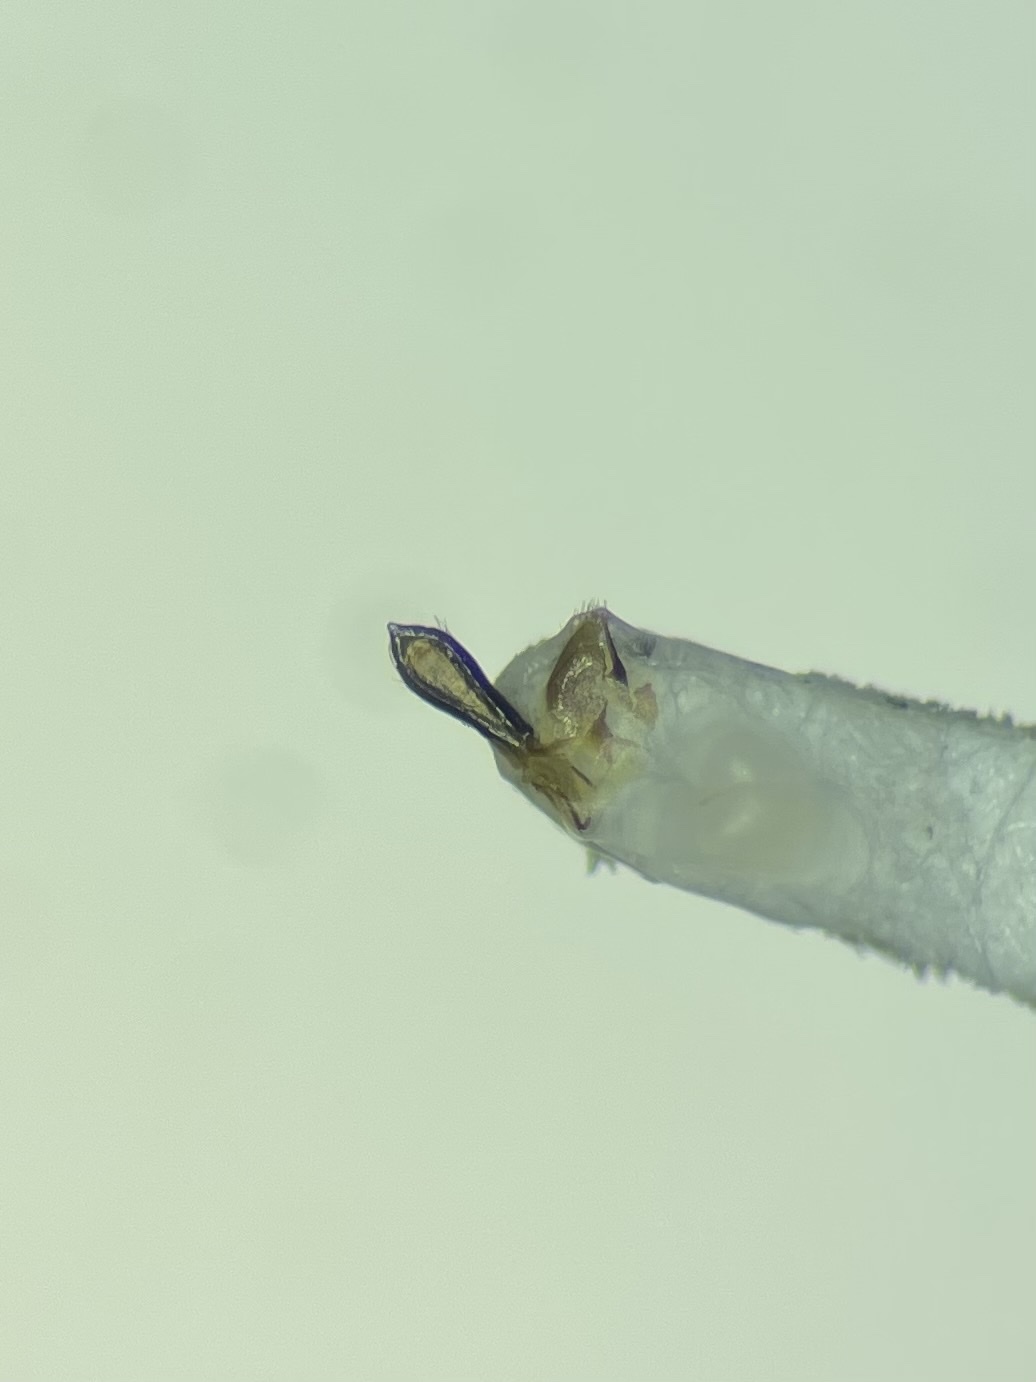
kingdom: Animalia
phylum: Arthropoda
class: Insecta
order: Coleoptera
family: Buprestidae
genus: Pachyschelus
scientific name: Pachyschelus laevigatus
